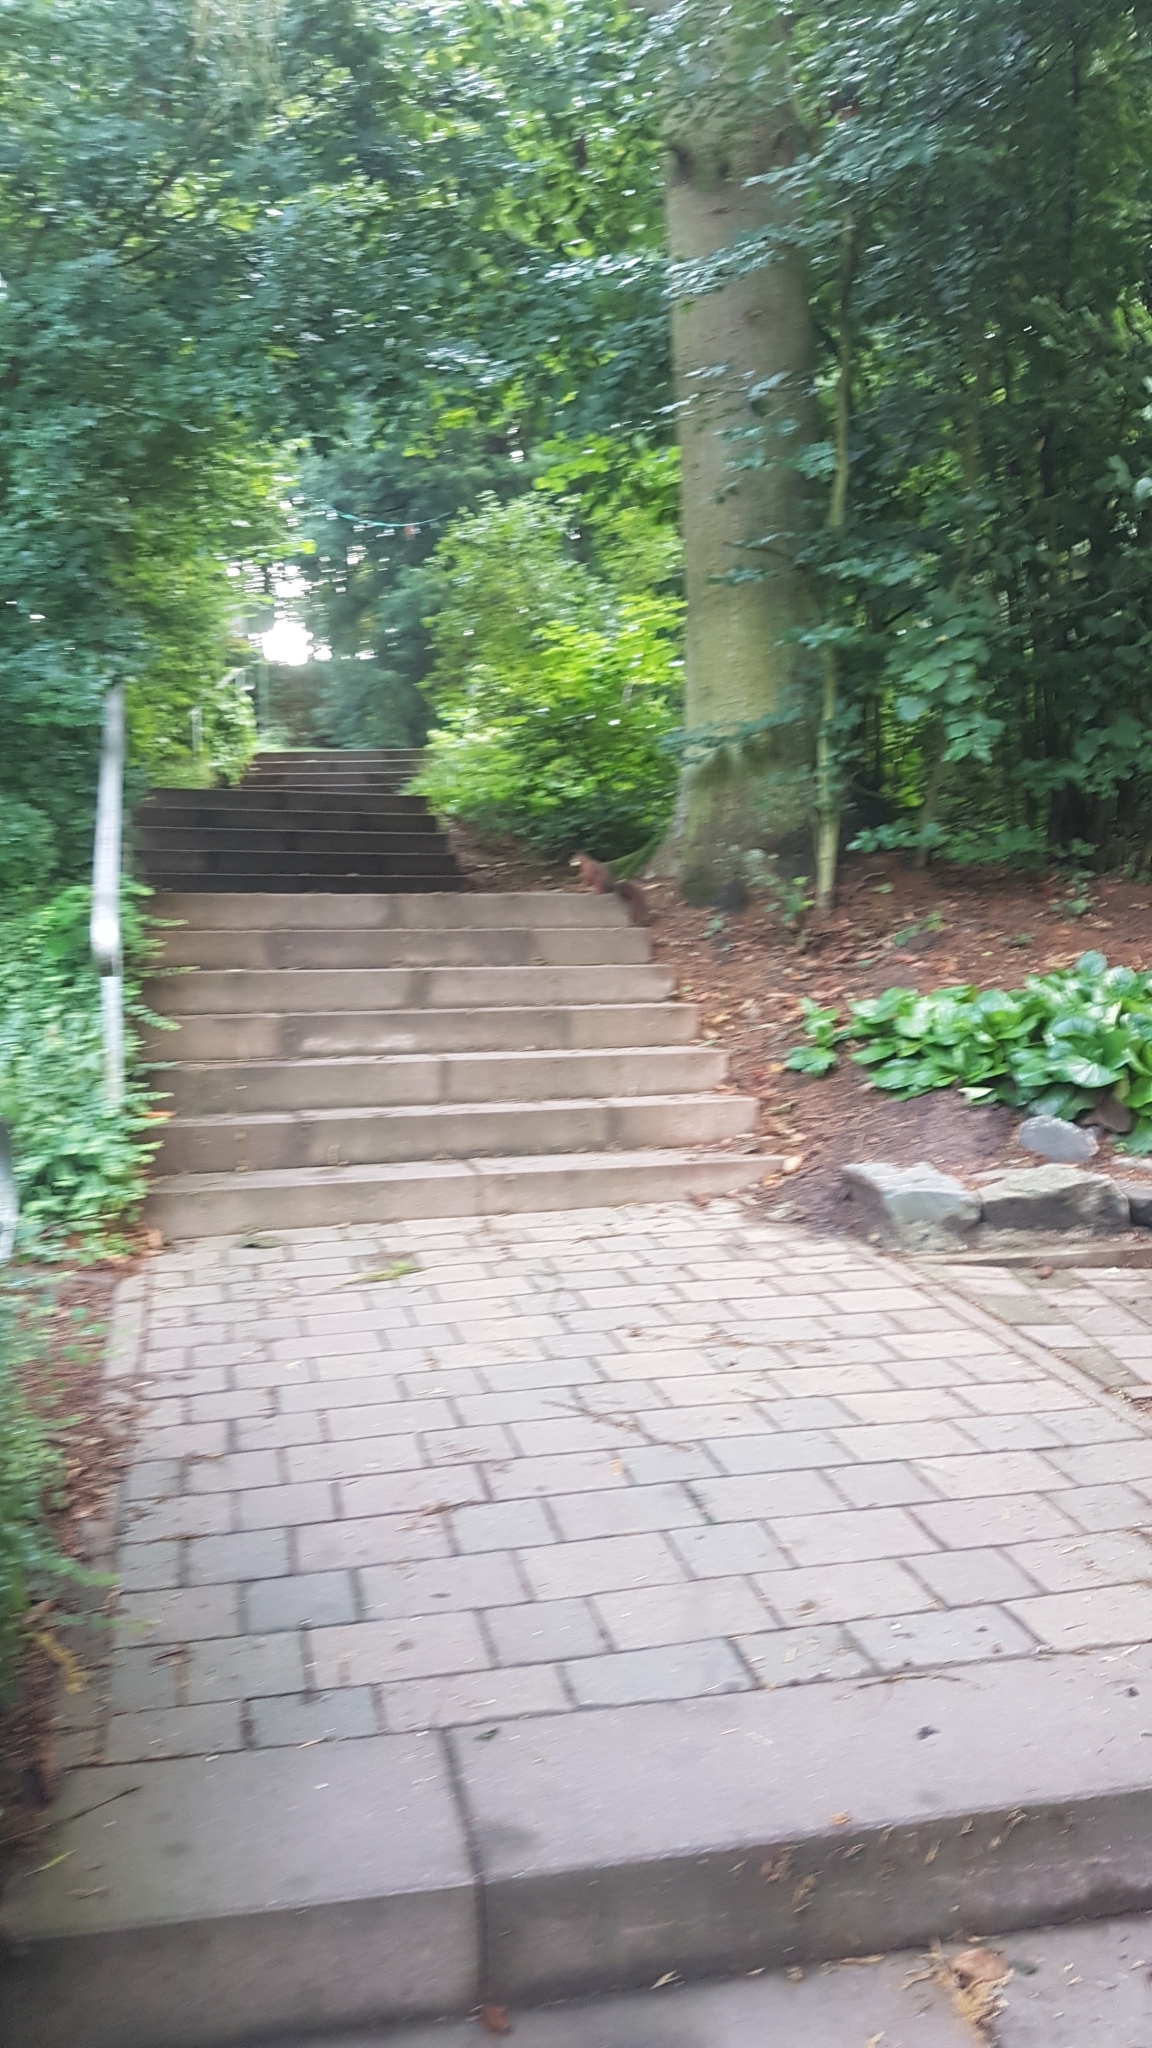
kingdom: Animalia
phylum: Chordata
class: Mammalia
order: Rodentia
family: Sciuridae
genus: Sciurus
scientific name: Sciurus vulgaris
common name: Eurasian red squirrel
